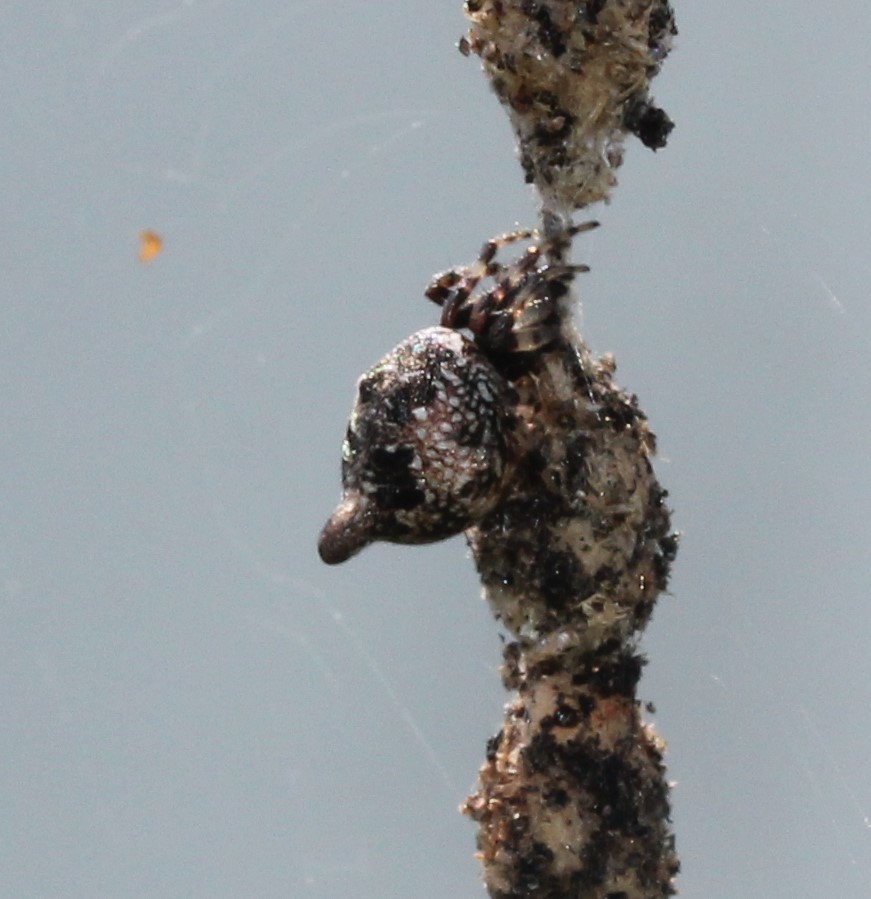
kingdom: Animalia
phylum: Arthropoda
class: Arachnida
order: Araneae
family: Araneidae
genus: Cyclosa
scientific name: Cyclosa turbinata
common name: Orb weavers
